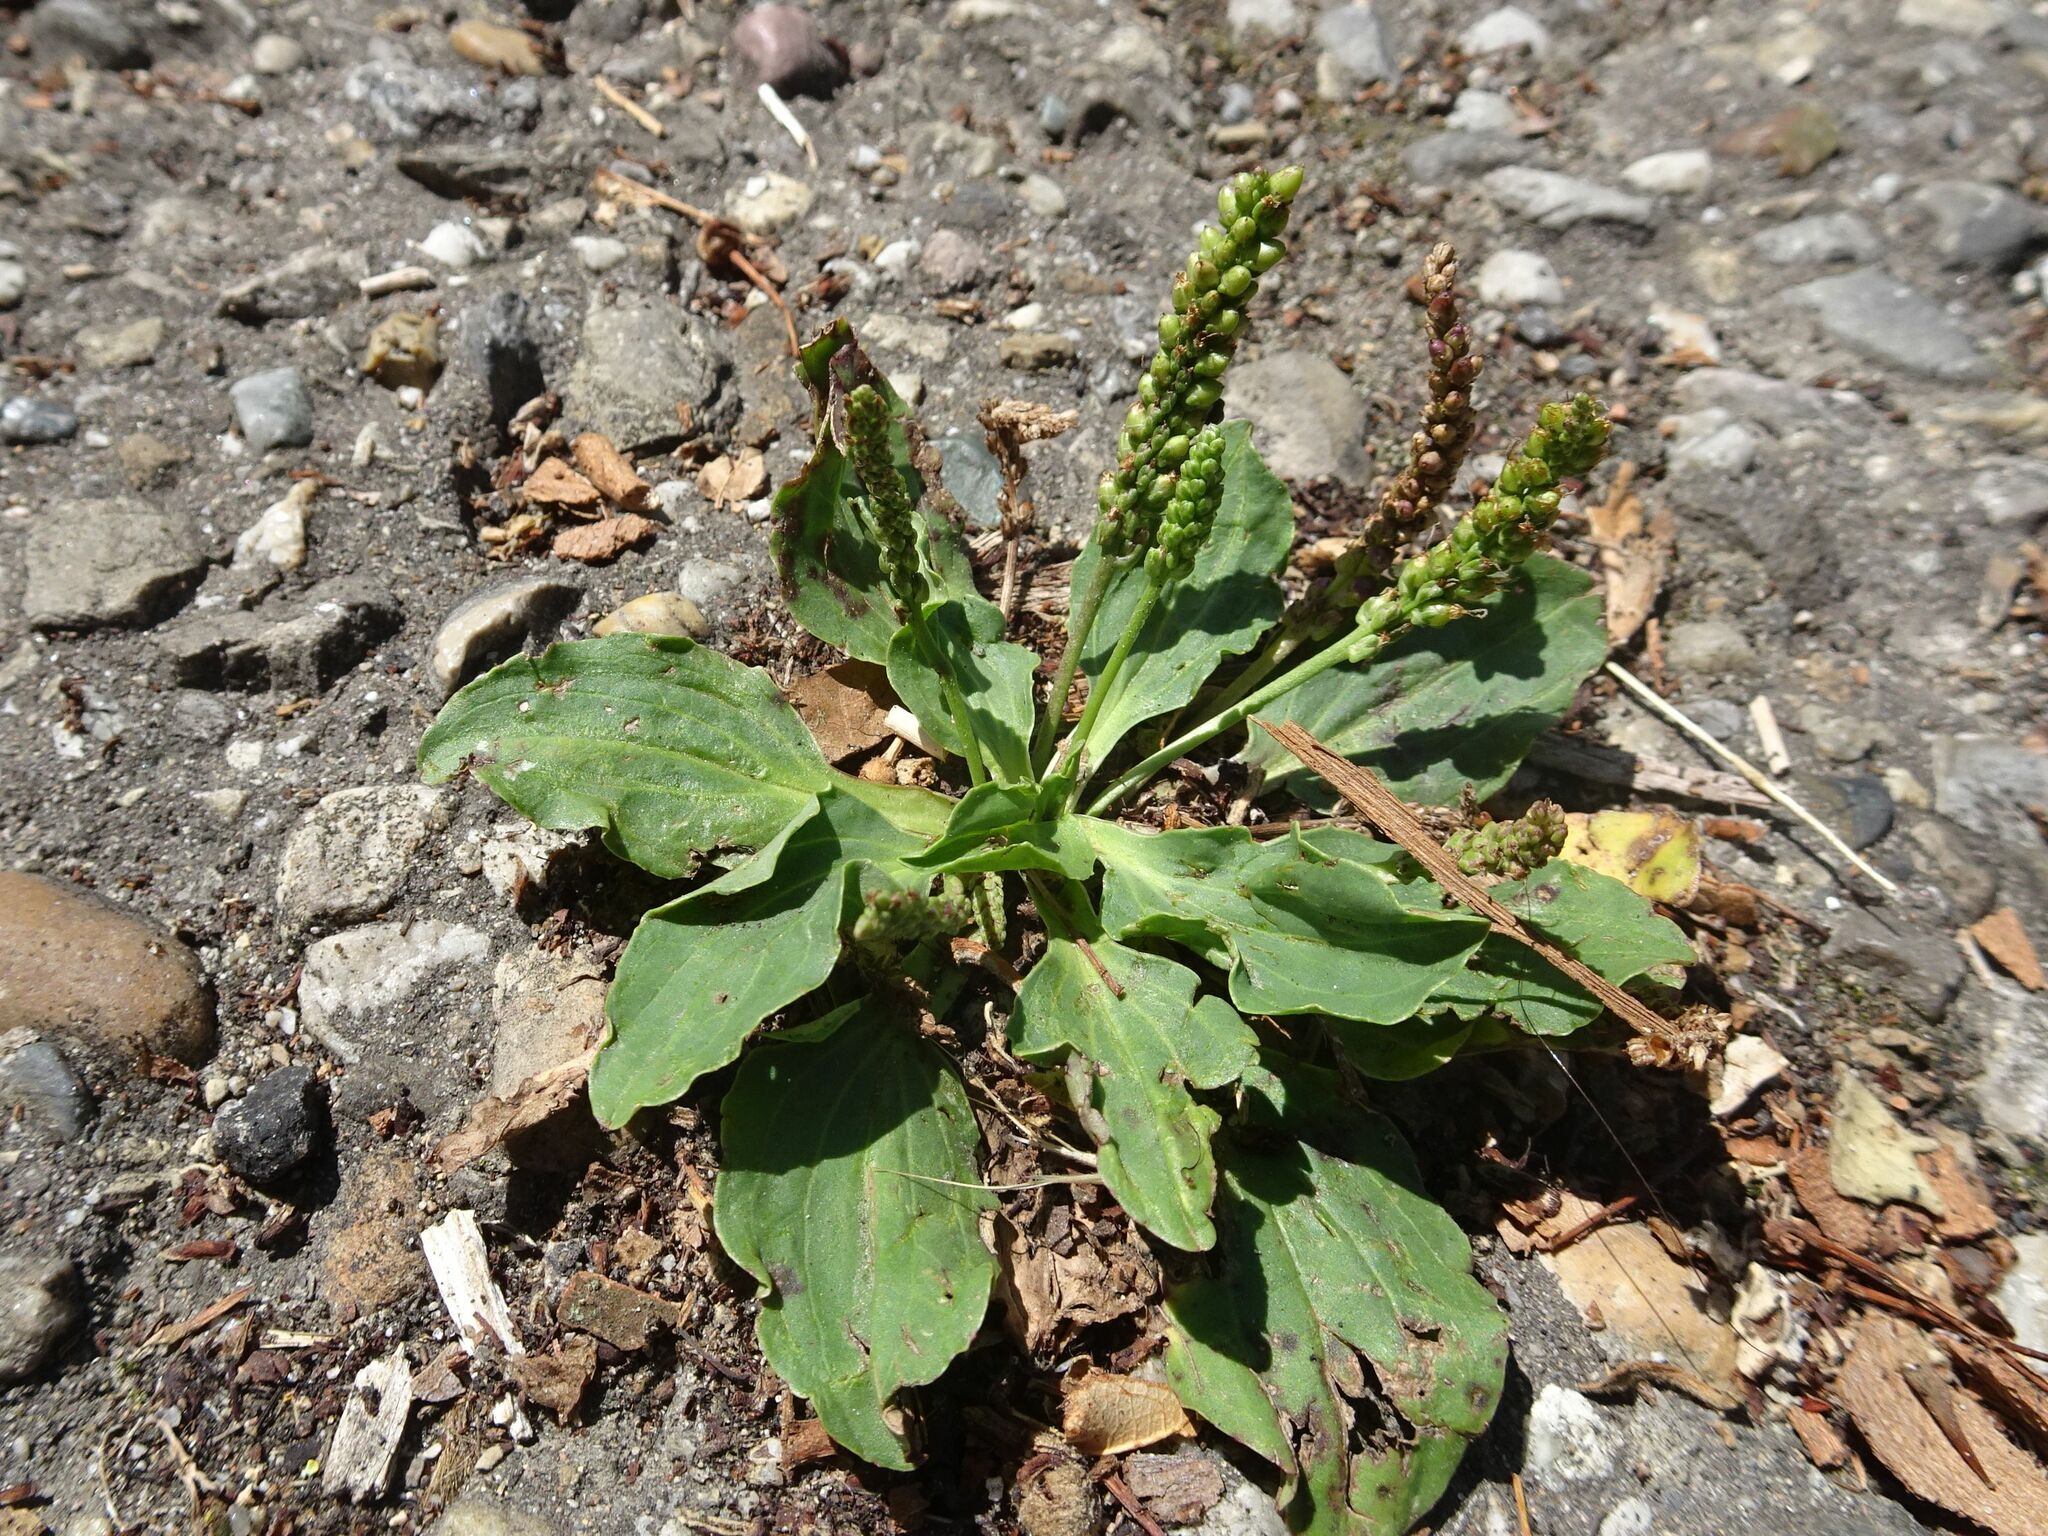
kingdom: Plantae
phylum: Tracheophyta
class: Magnoliopsida
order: Lamiales
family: Plantaginaceae
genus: Plantago
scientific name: Plantago major
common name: Common plantain
